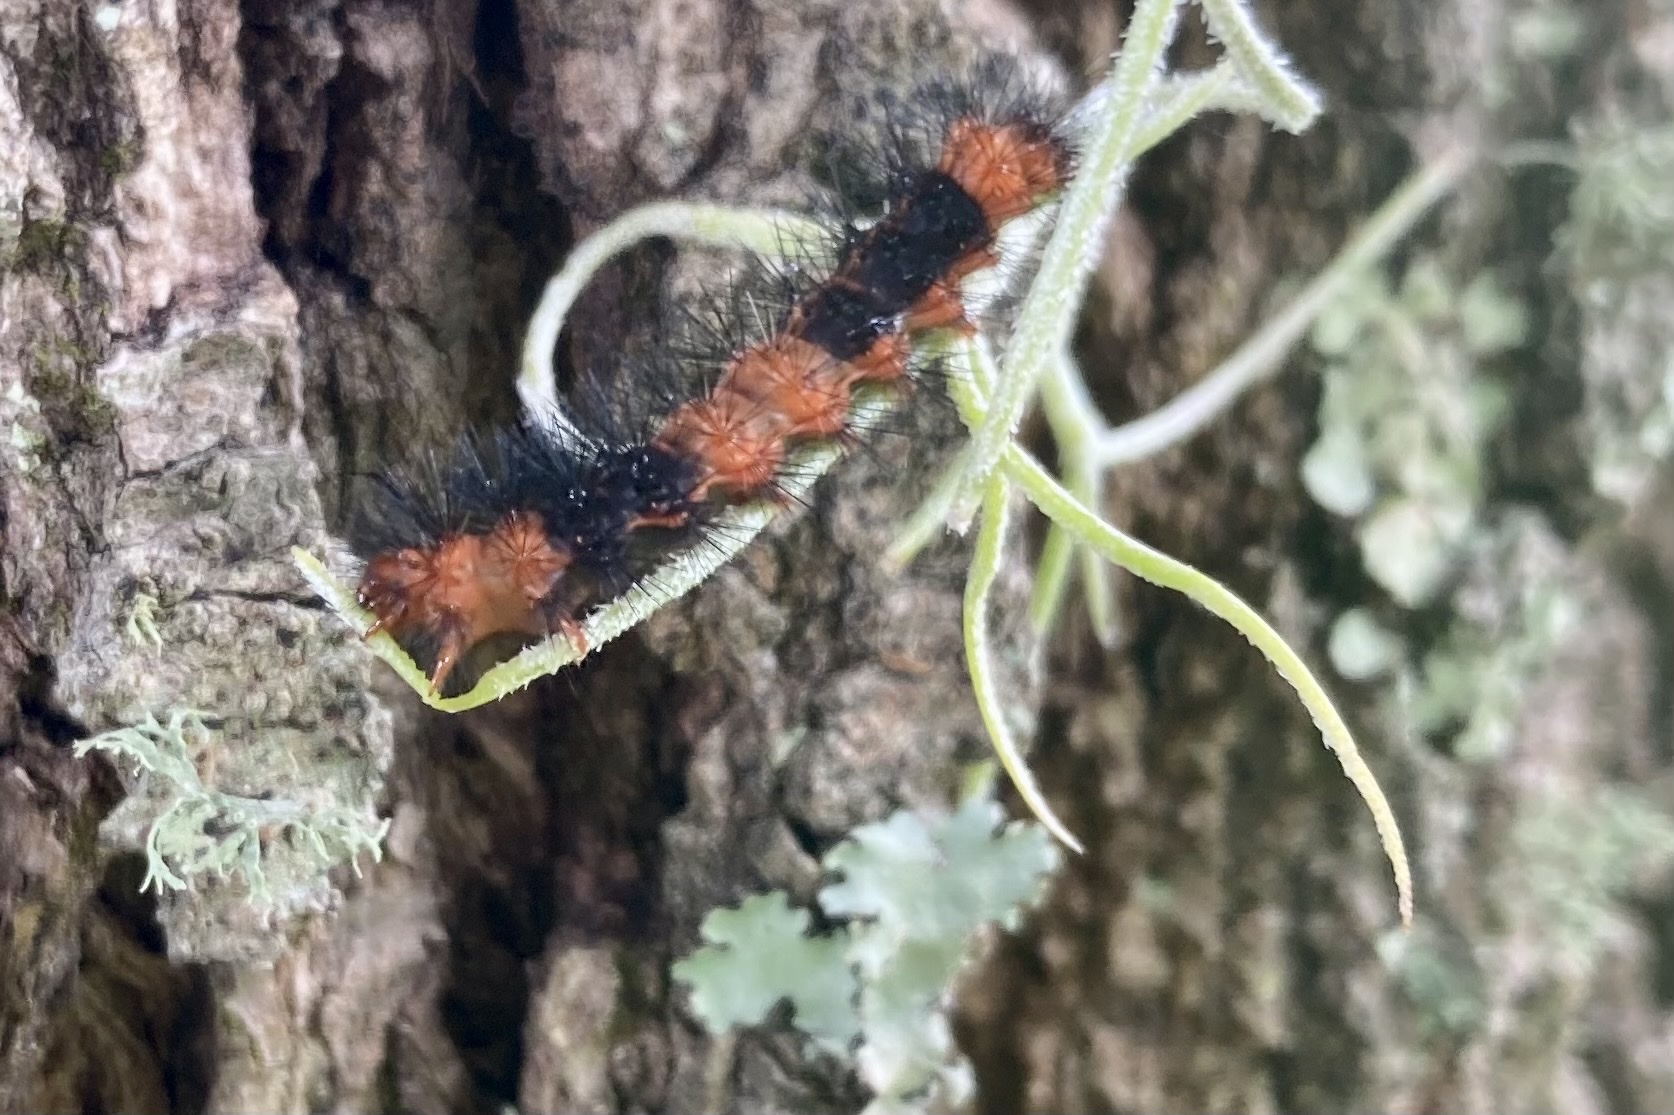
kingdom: Animalia
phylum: Arthropoda
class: Insecta
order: Lepidoptera
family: Erebidae
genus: Hypercompe
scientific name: Hypercompe scribonia
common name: Giant leopard moth
